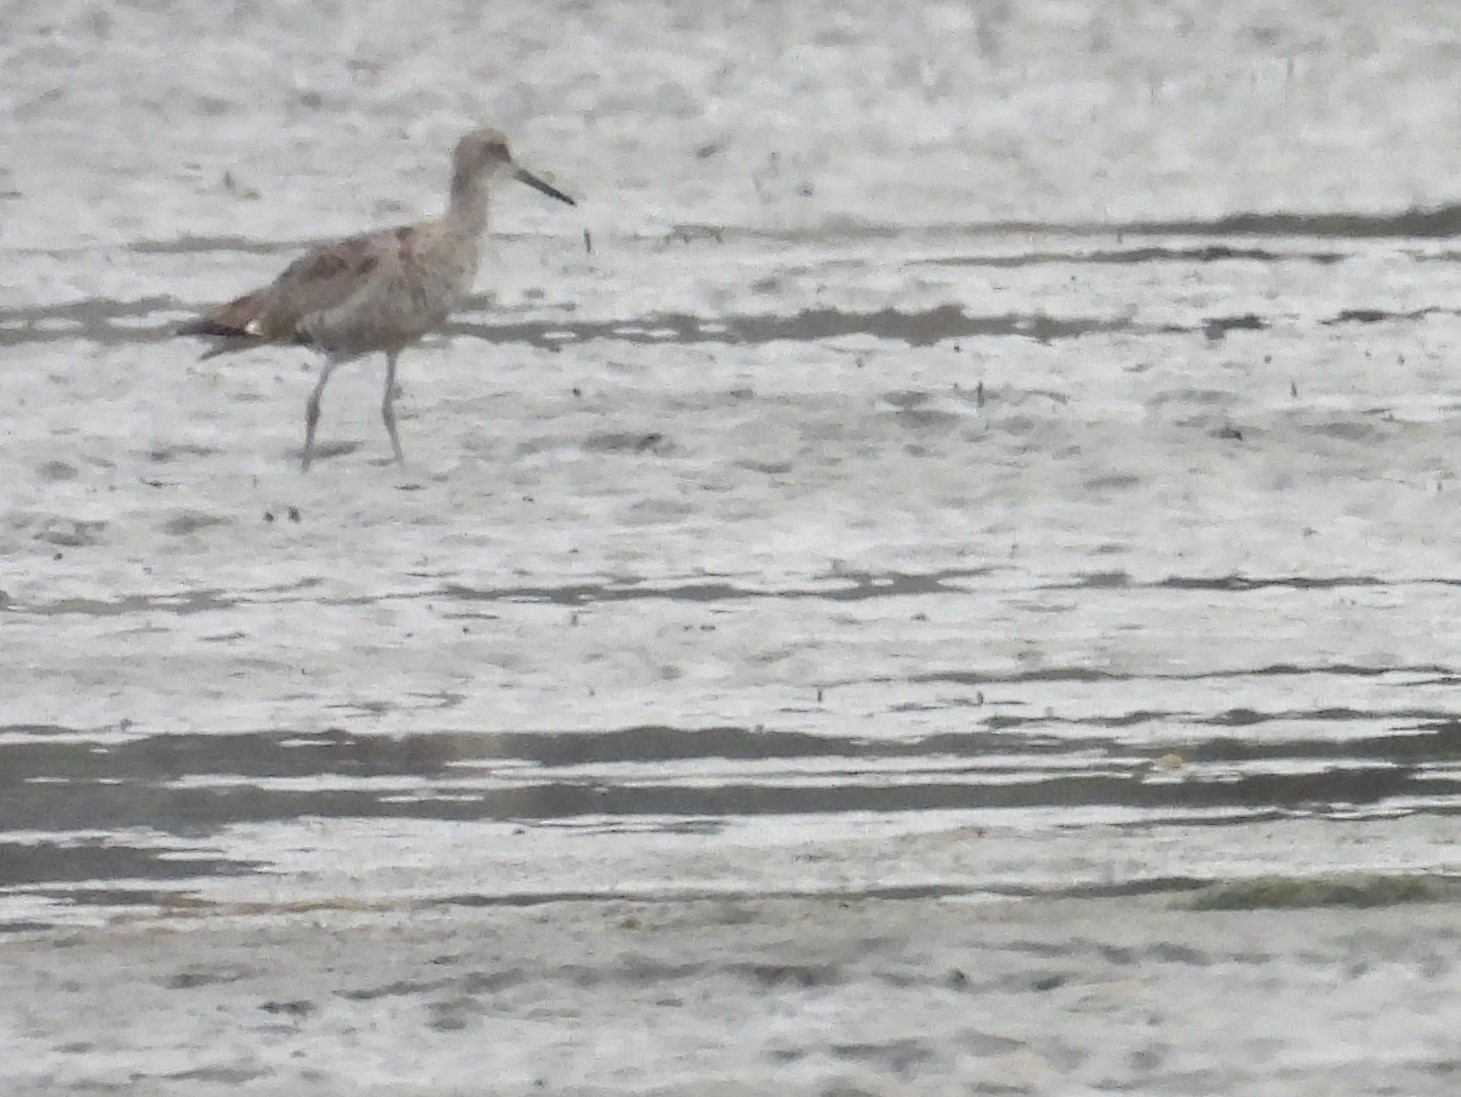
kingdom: Animalia
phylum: Chordata
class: Aves
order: Charadriiformes
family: Scolopacidae
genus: Tringa
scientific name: Tringa semipalmata
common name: Willet
